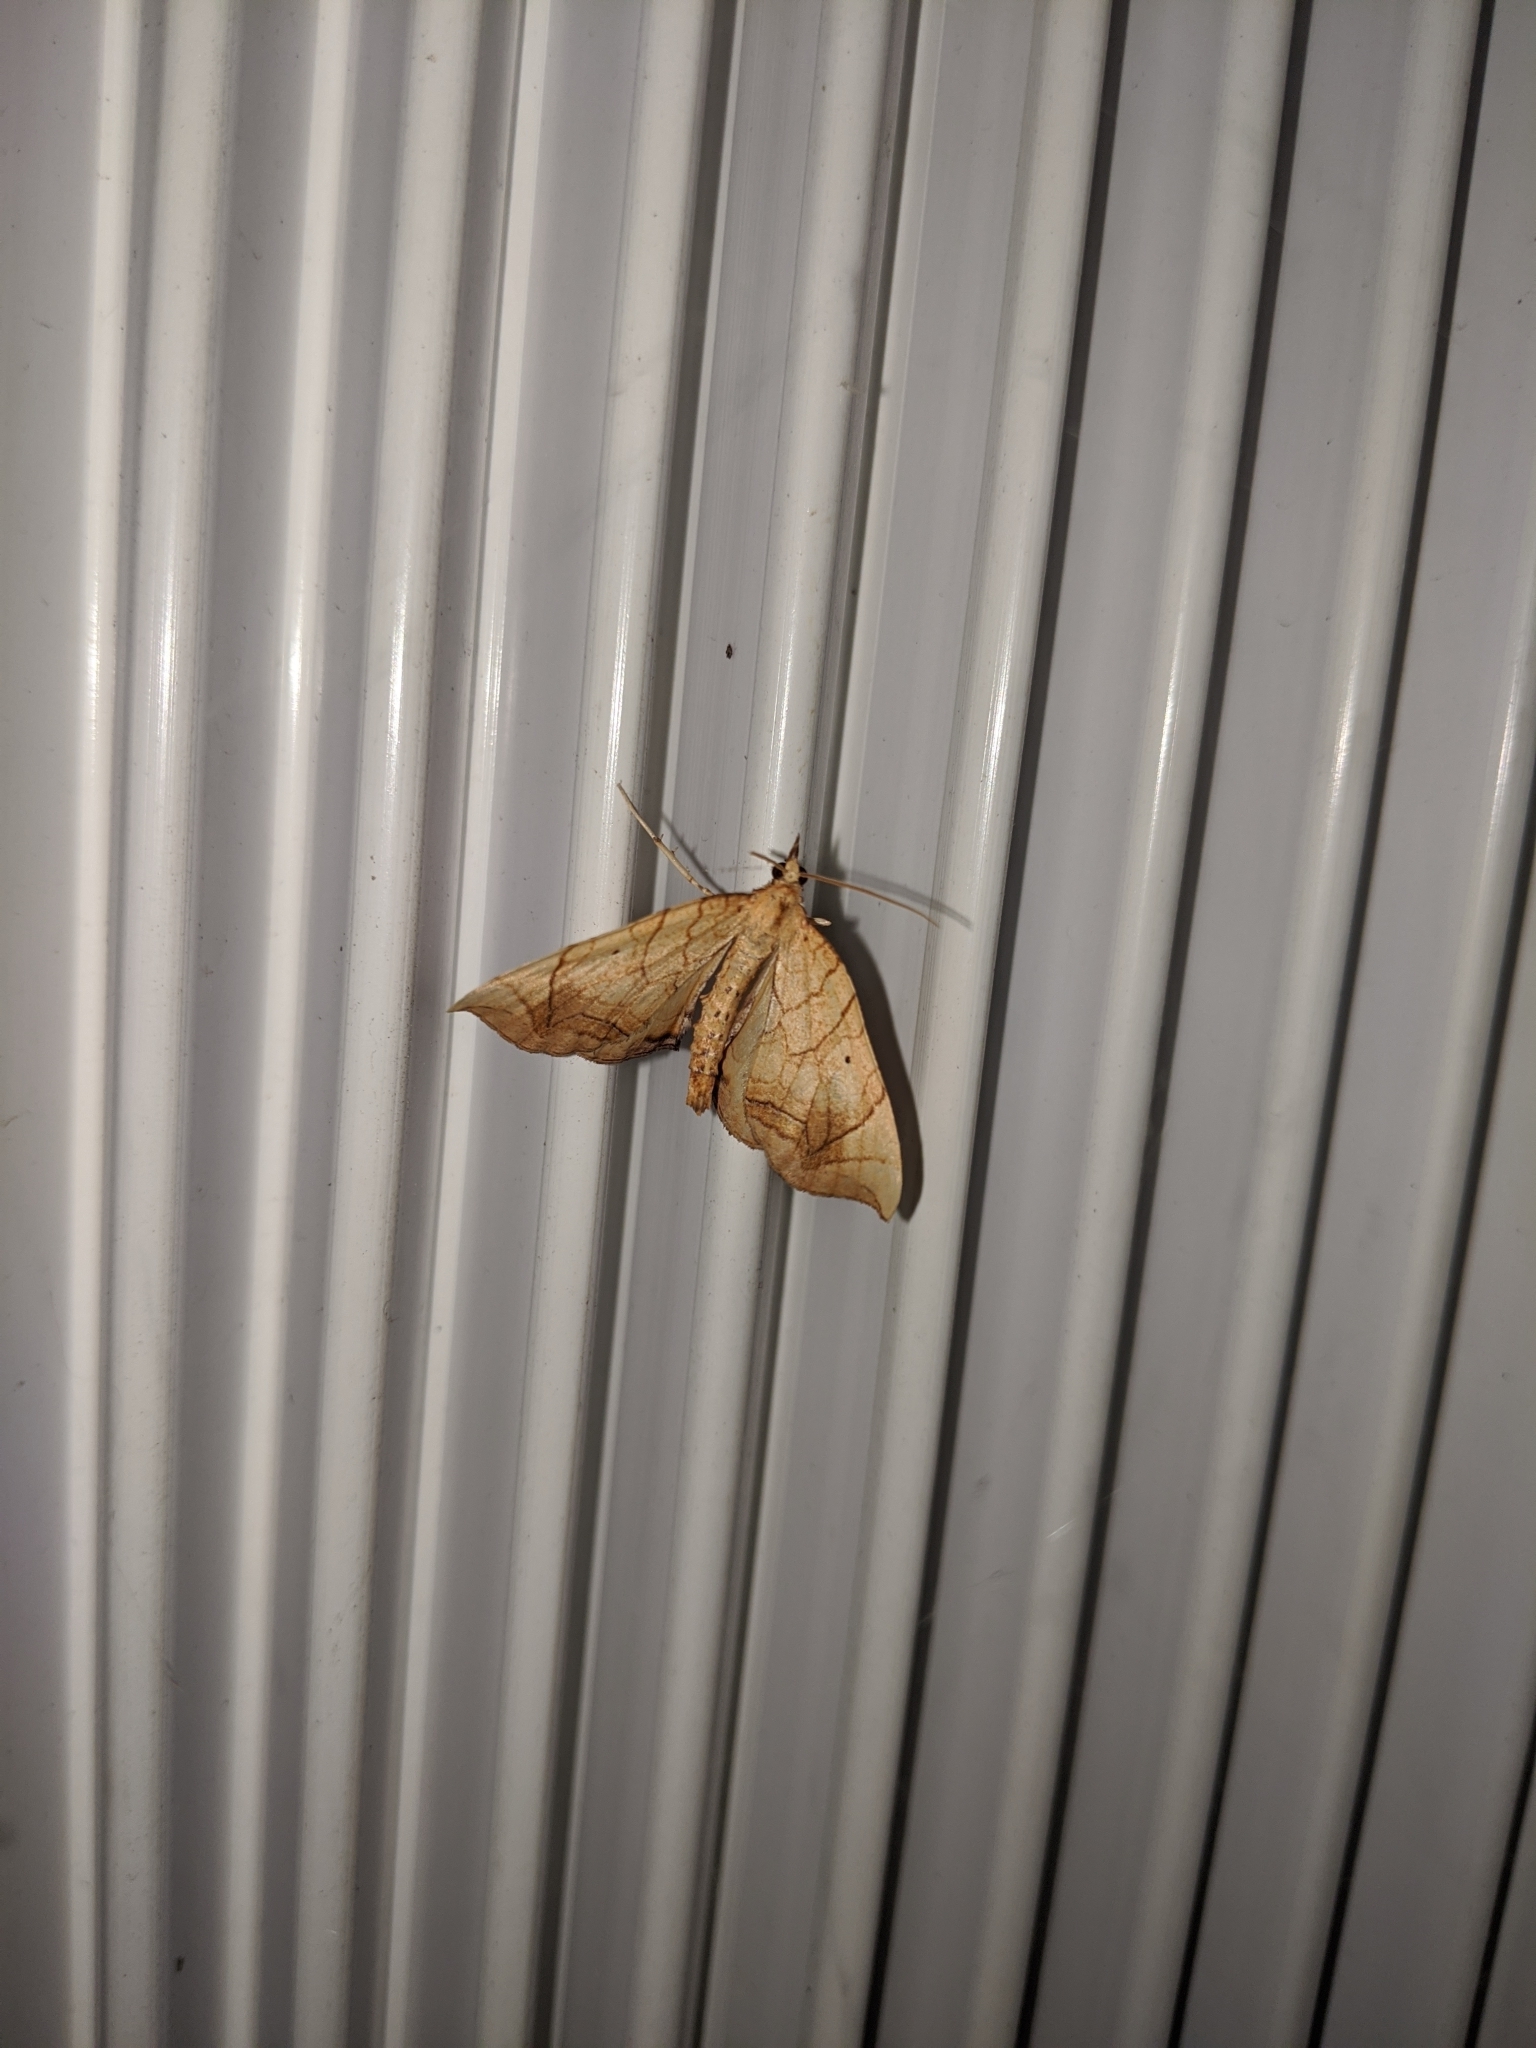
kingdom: Animalia
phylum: Arthropoda
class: Insecta
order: Lepidoptera
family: Geometridae
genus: Eulithis
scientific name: Eulithis
